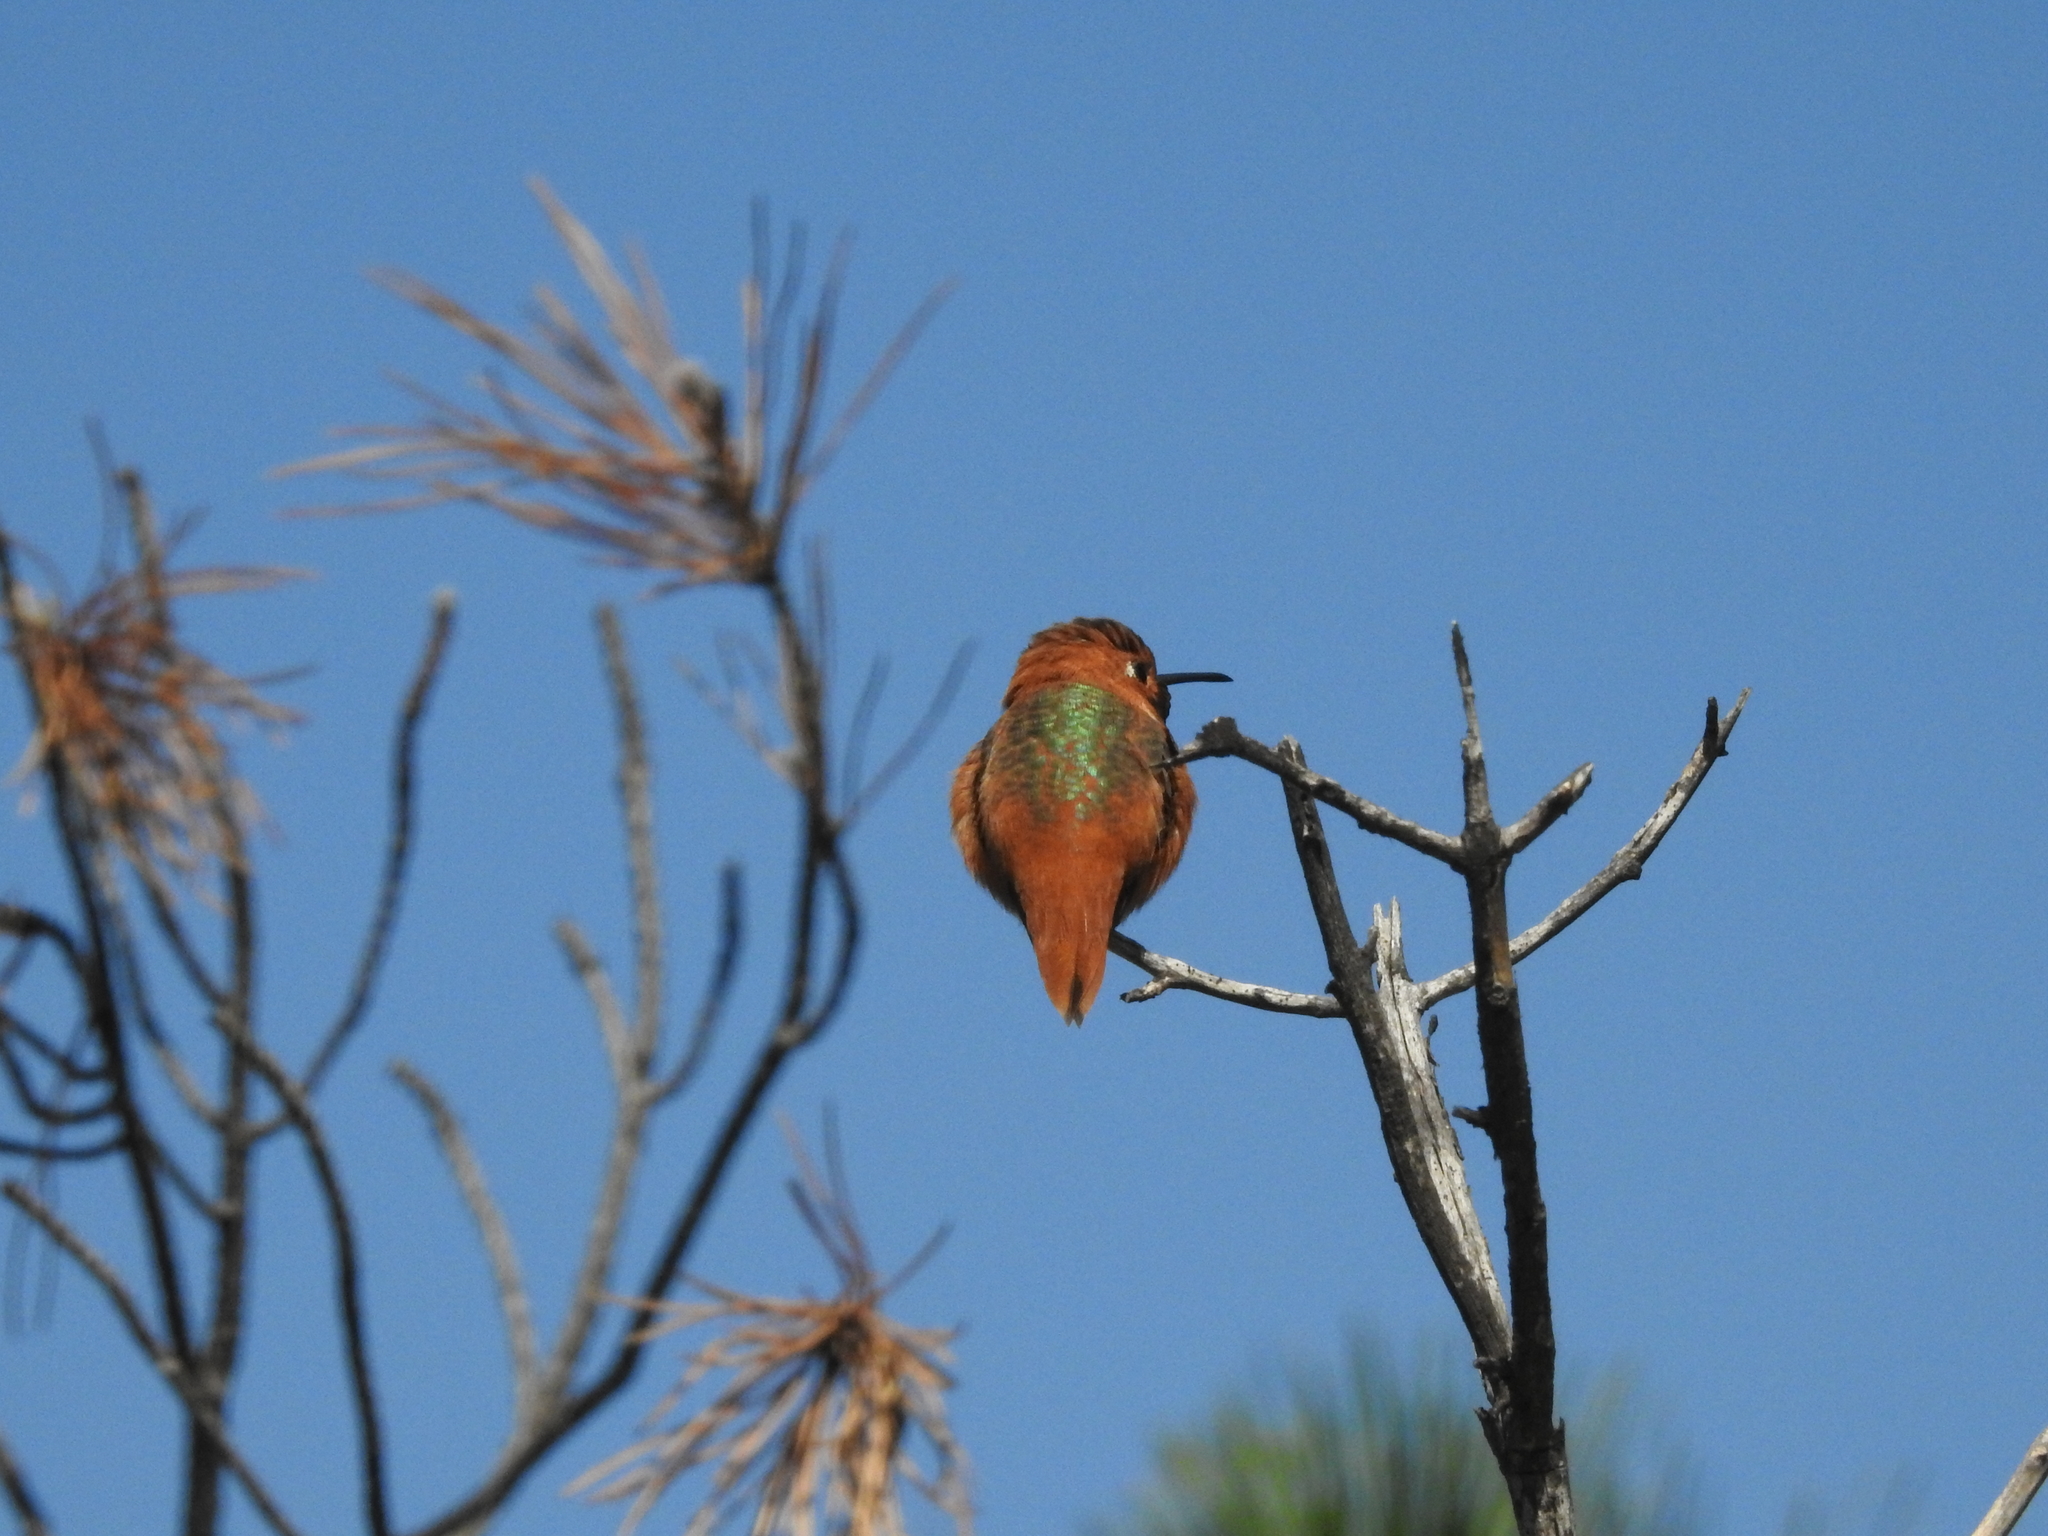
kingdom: Animalia
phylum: Chordata
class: Aves
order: Apodiformes
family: Trochilidae
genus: Selasphorus
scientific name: Selasphorus sasin
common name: Allen's hummingbird
